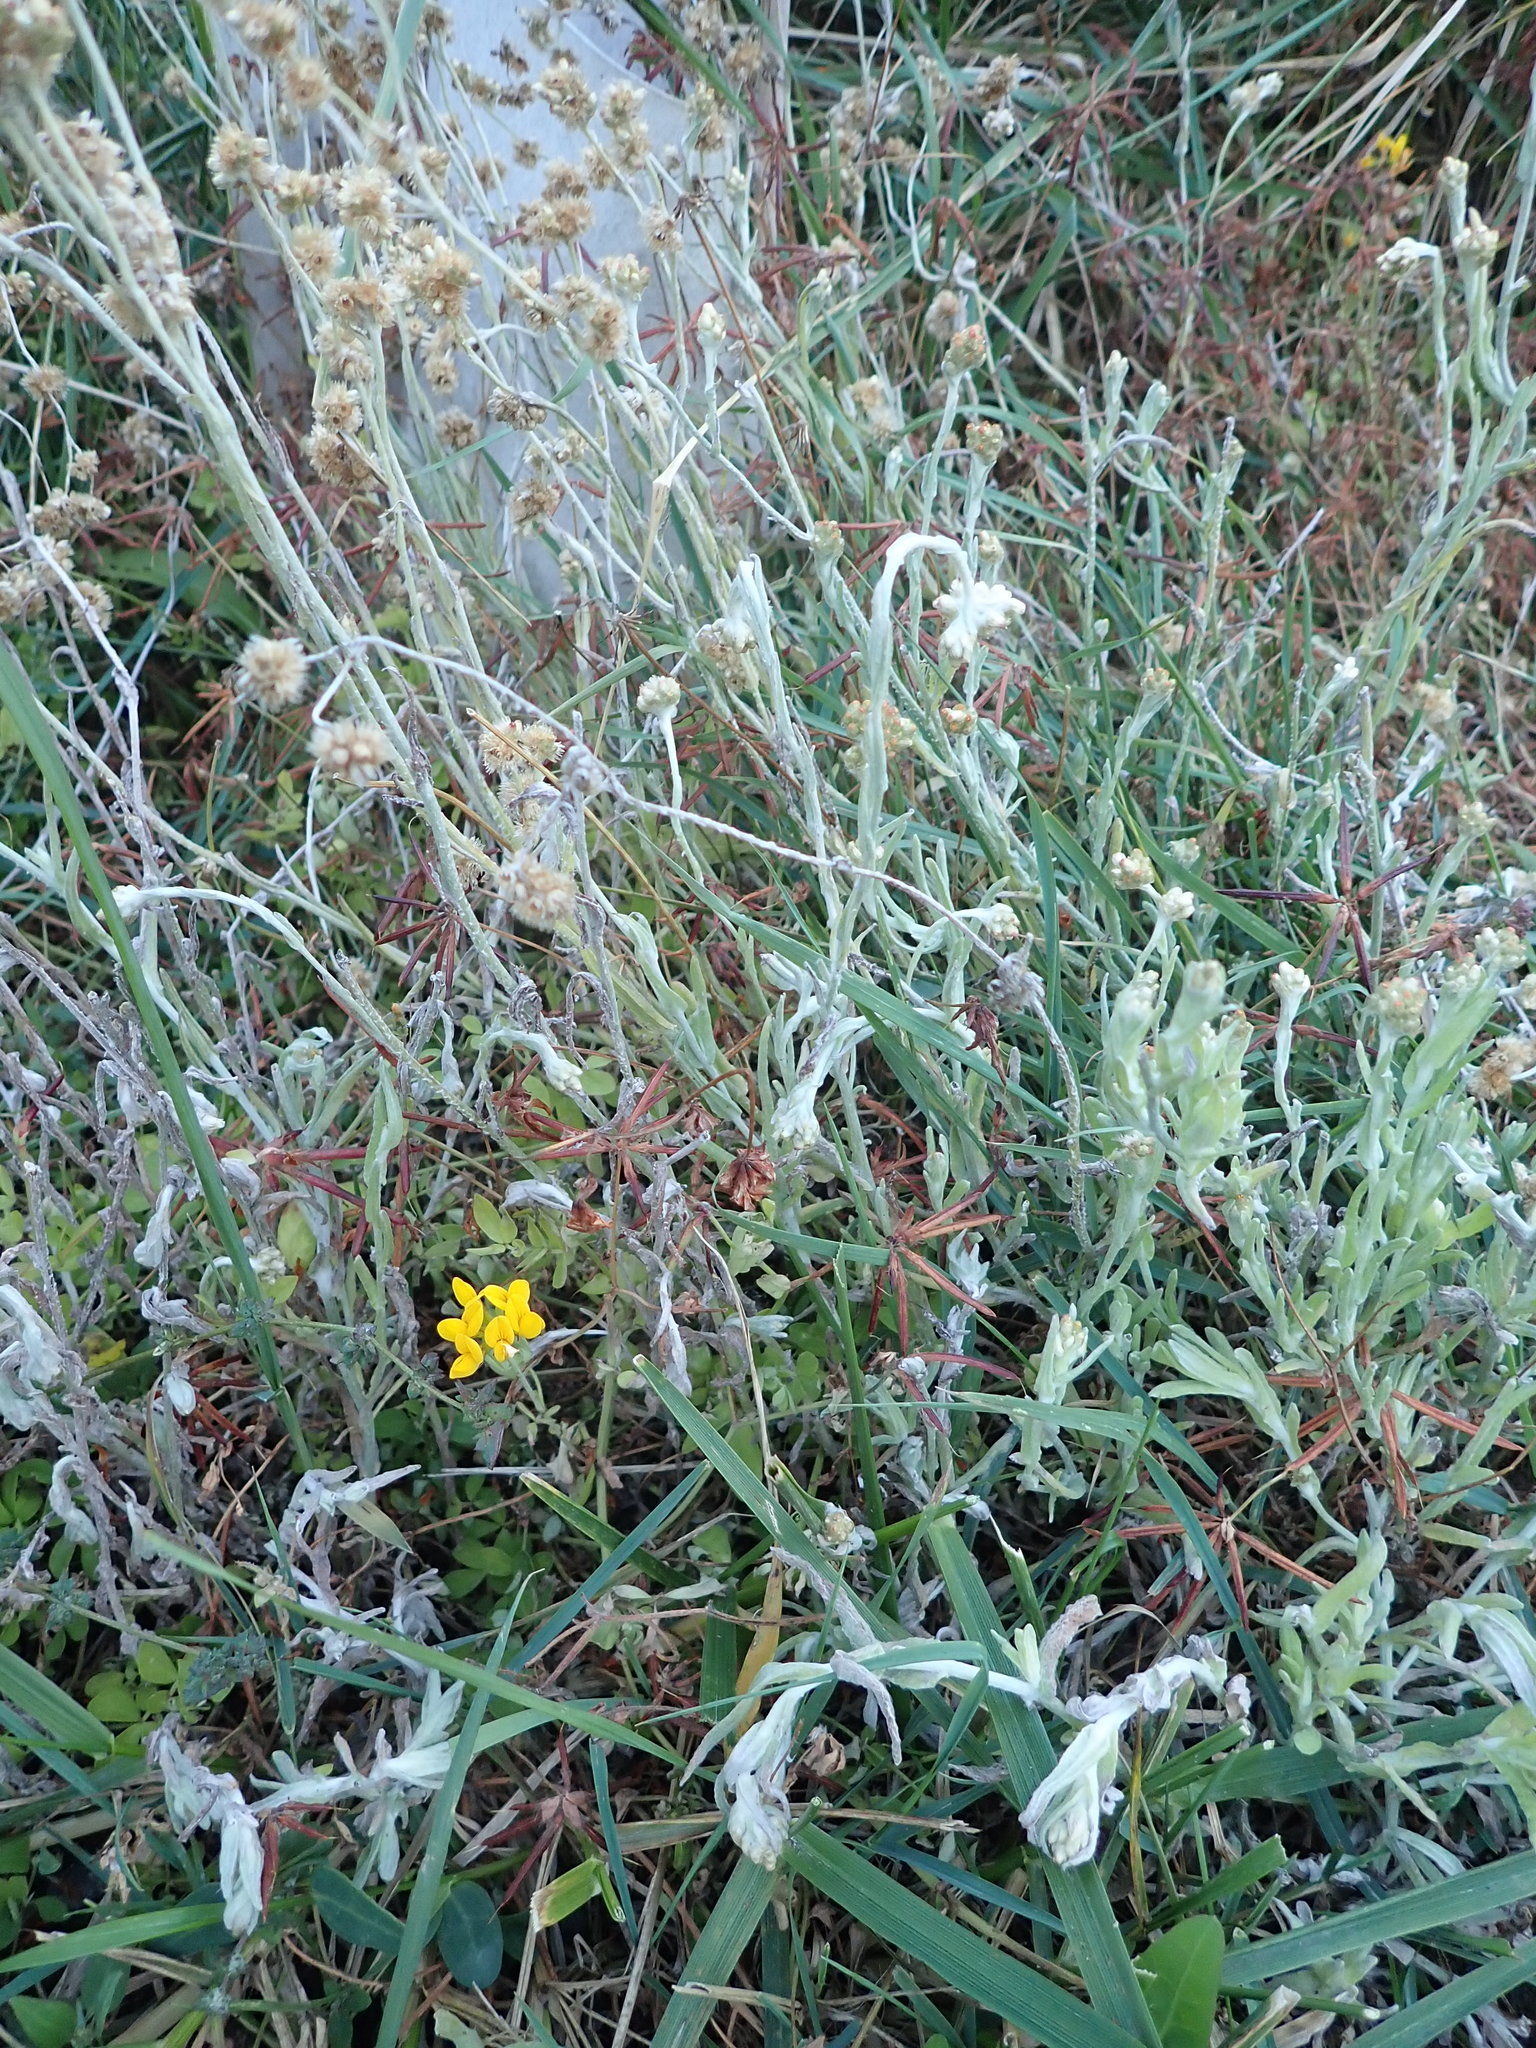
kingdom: Plantae
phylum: Tracheophyta
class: Magnoliopsida
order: Asterales
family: Asteraceae
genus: Helichrysum
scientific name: Helichrysum luteoalbum
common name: Daisy
